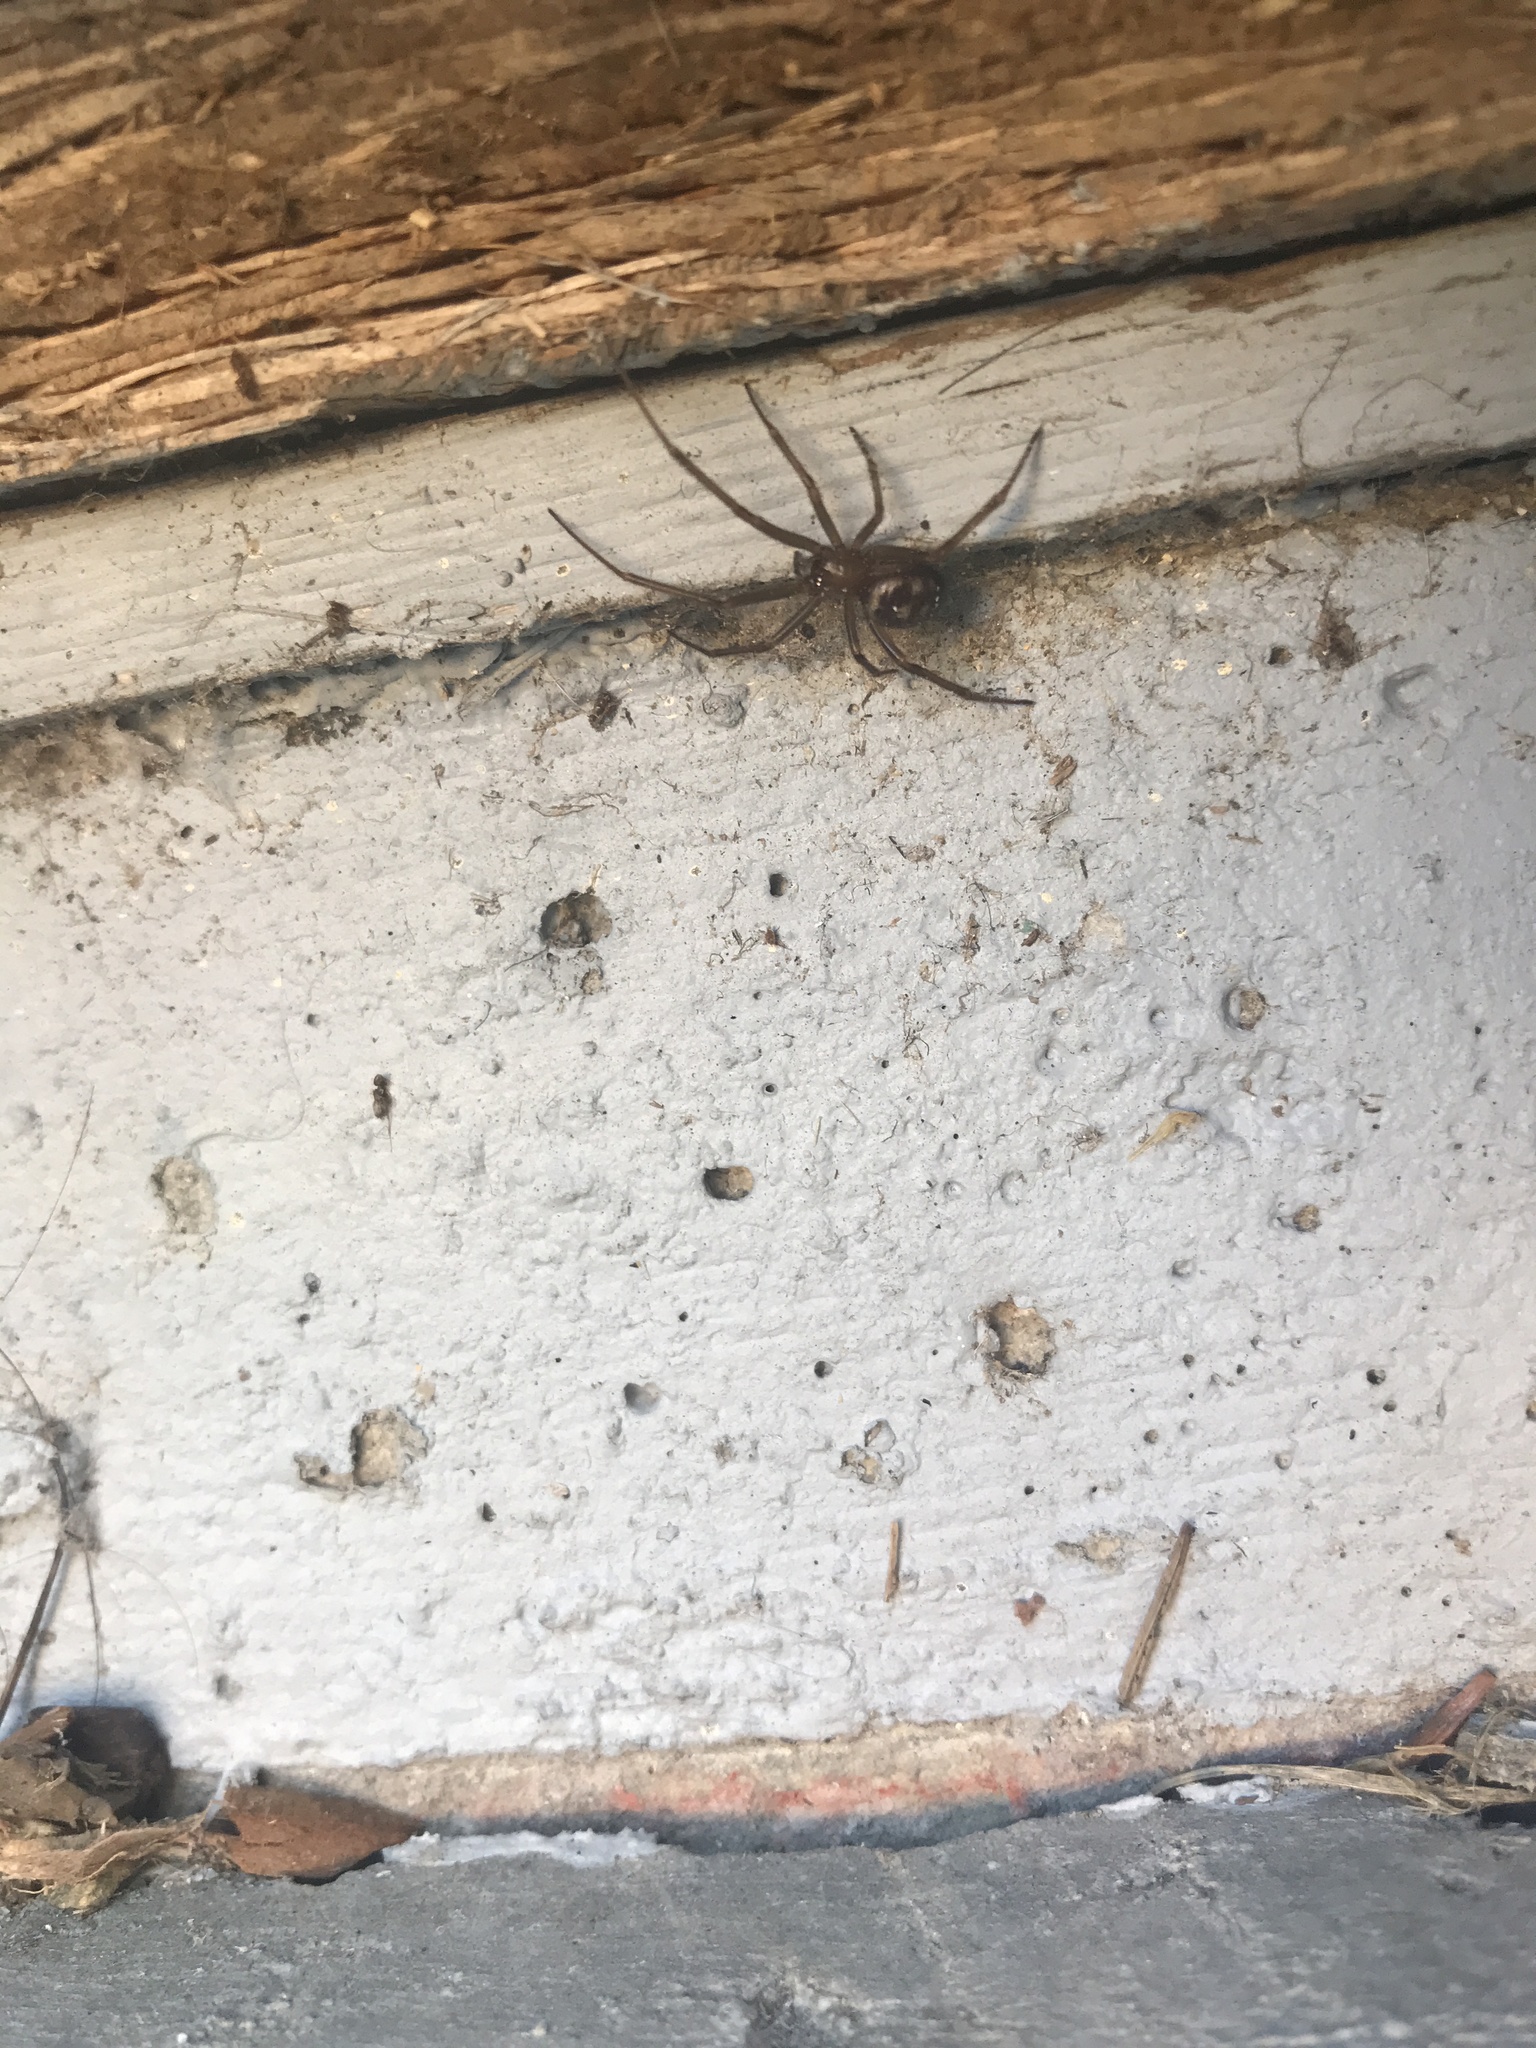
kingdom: Animalia
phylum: Arthropoda
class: Arachnida
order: Araneae
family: Theridiidae
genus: Steatoda
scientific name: Steatoda grossa
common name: False black widow
